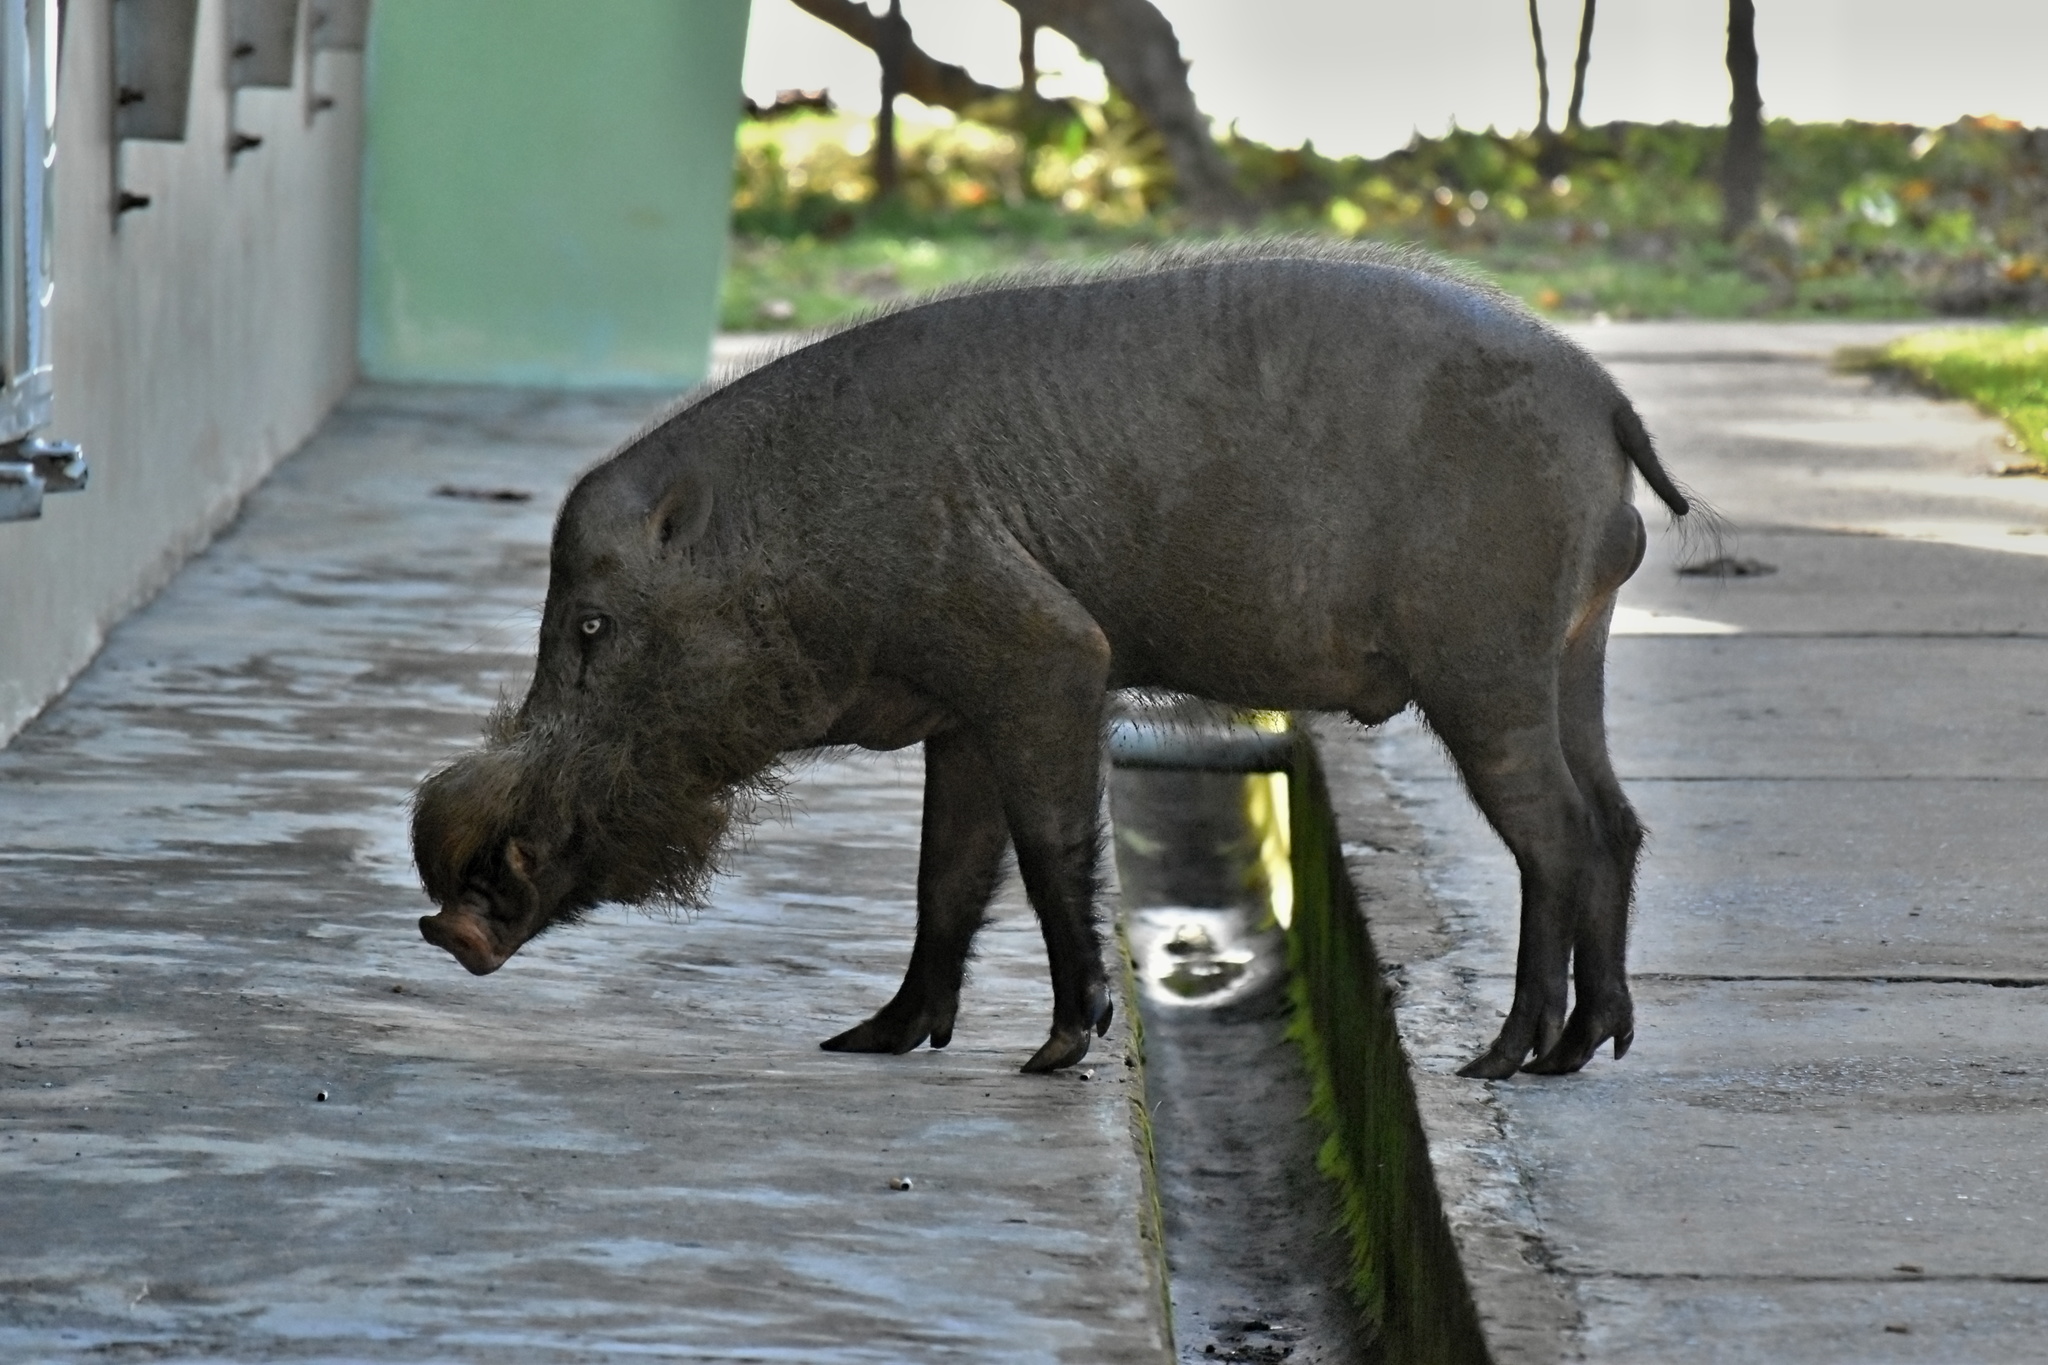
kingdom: Animalia
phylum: Chordata
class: Mammalia
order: Artiodactyla
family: Suidae
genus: Sus
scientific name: Sus barbatus
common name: Bearded pig
